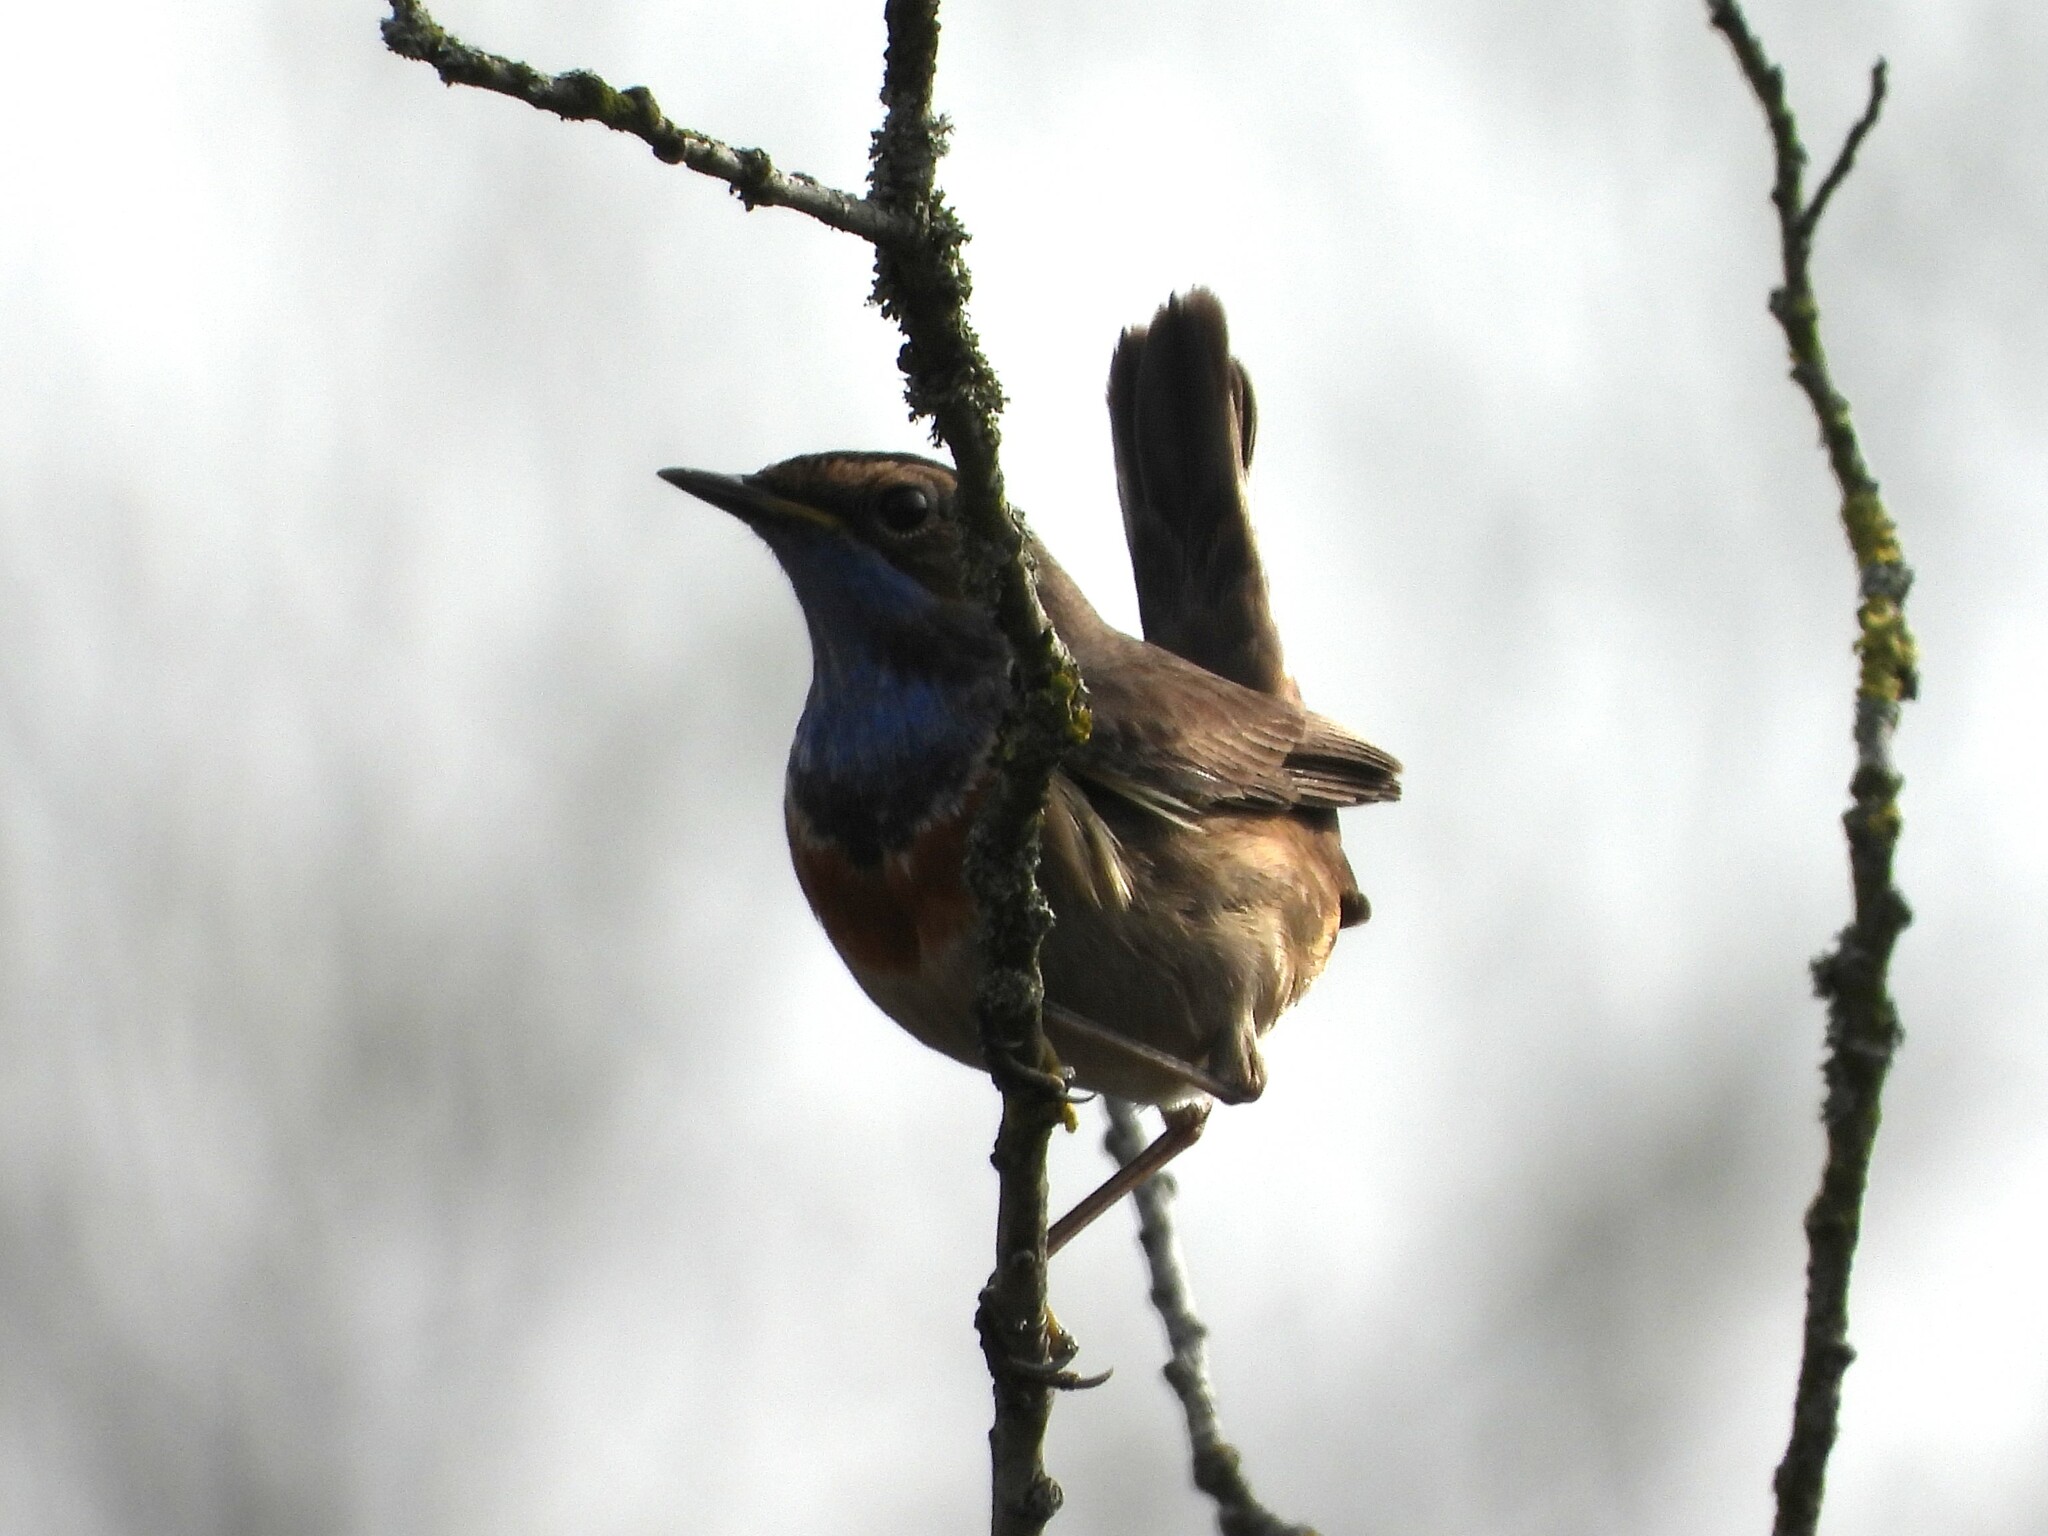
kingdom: Animalia
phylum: Chordata
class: Aves
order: Passeriformes
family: Muscicapidae
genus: Luscinia
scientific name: Luscinia svecica
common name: Bluethroat
